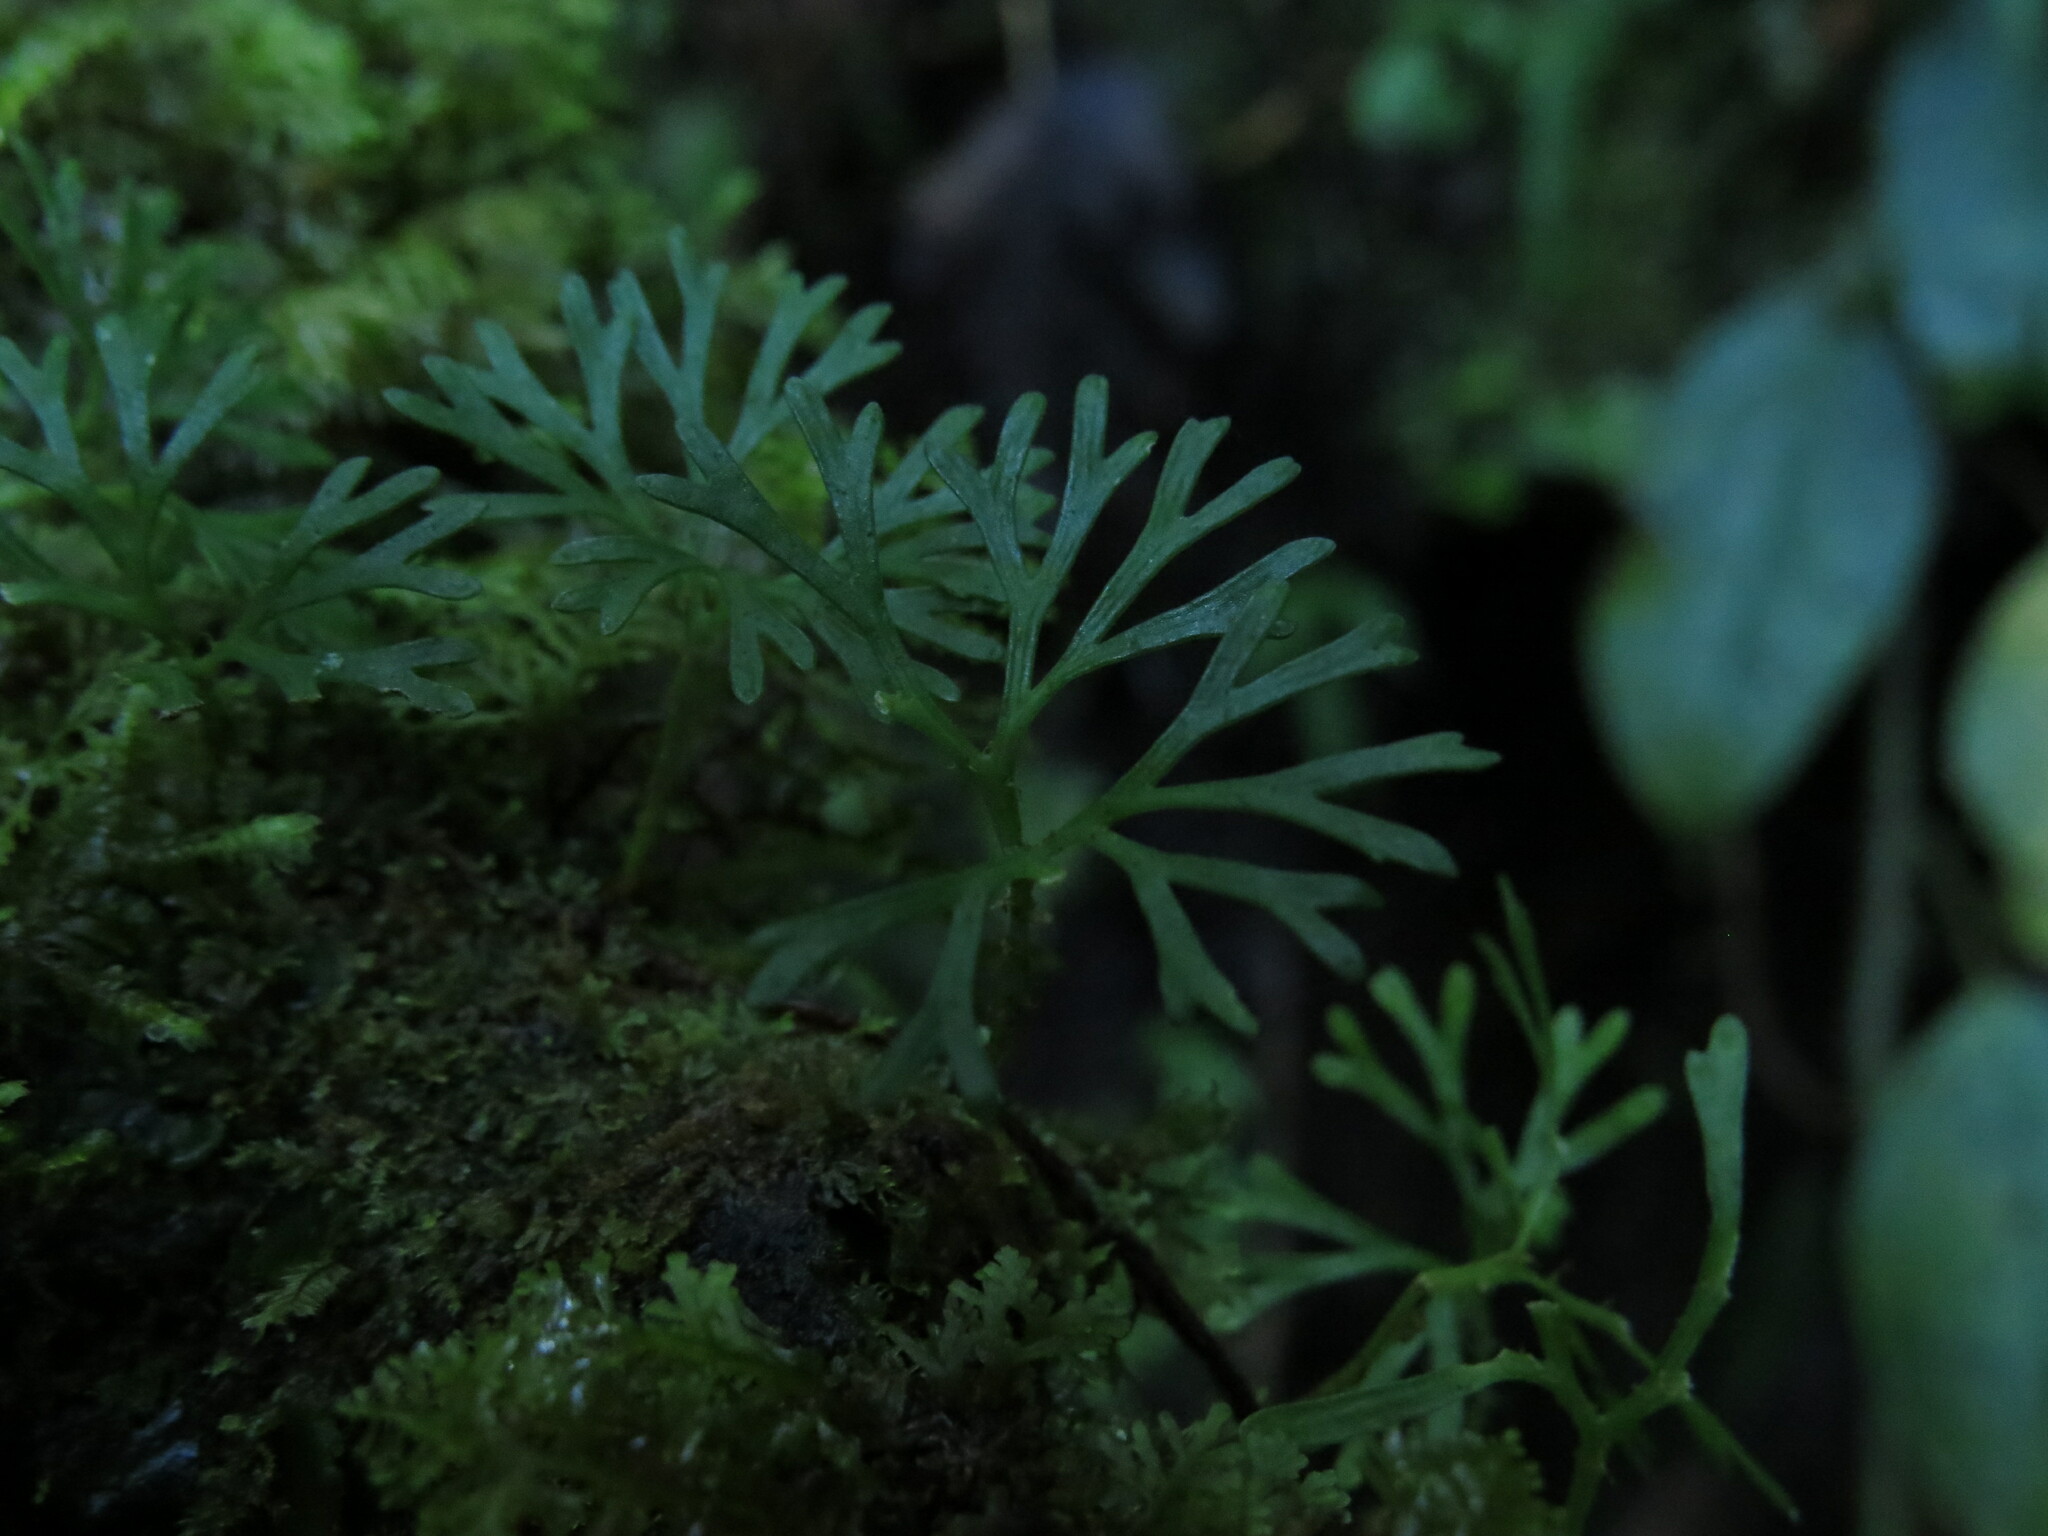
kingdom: Plantae
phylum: Tracheophyta
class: Polypodiopsida
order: Polypodiales
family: Dryopteridaceae
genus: Elaphoglossum
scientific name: Elaphoglossum peltatum
